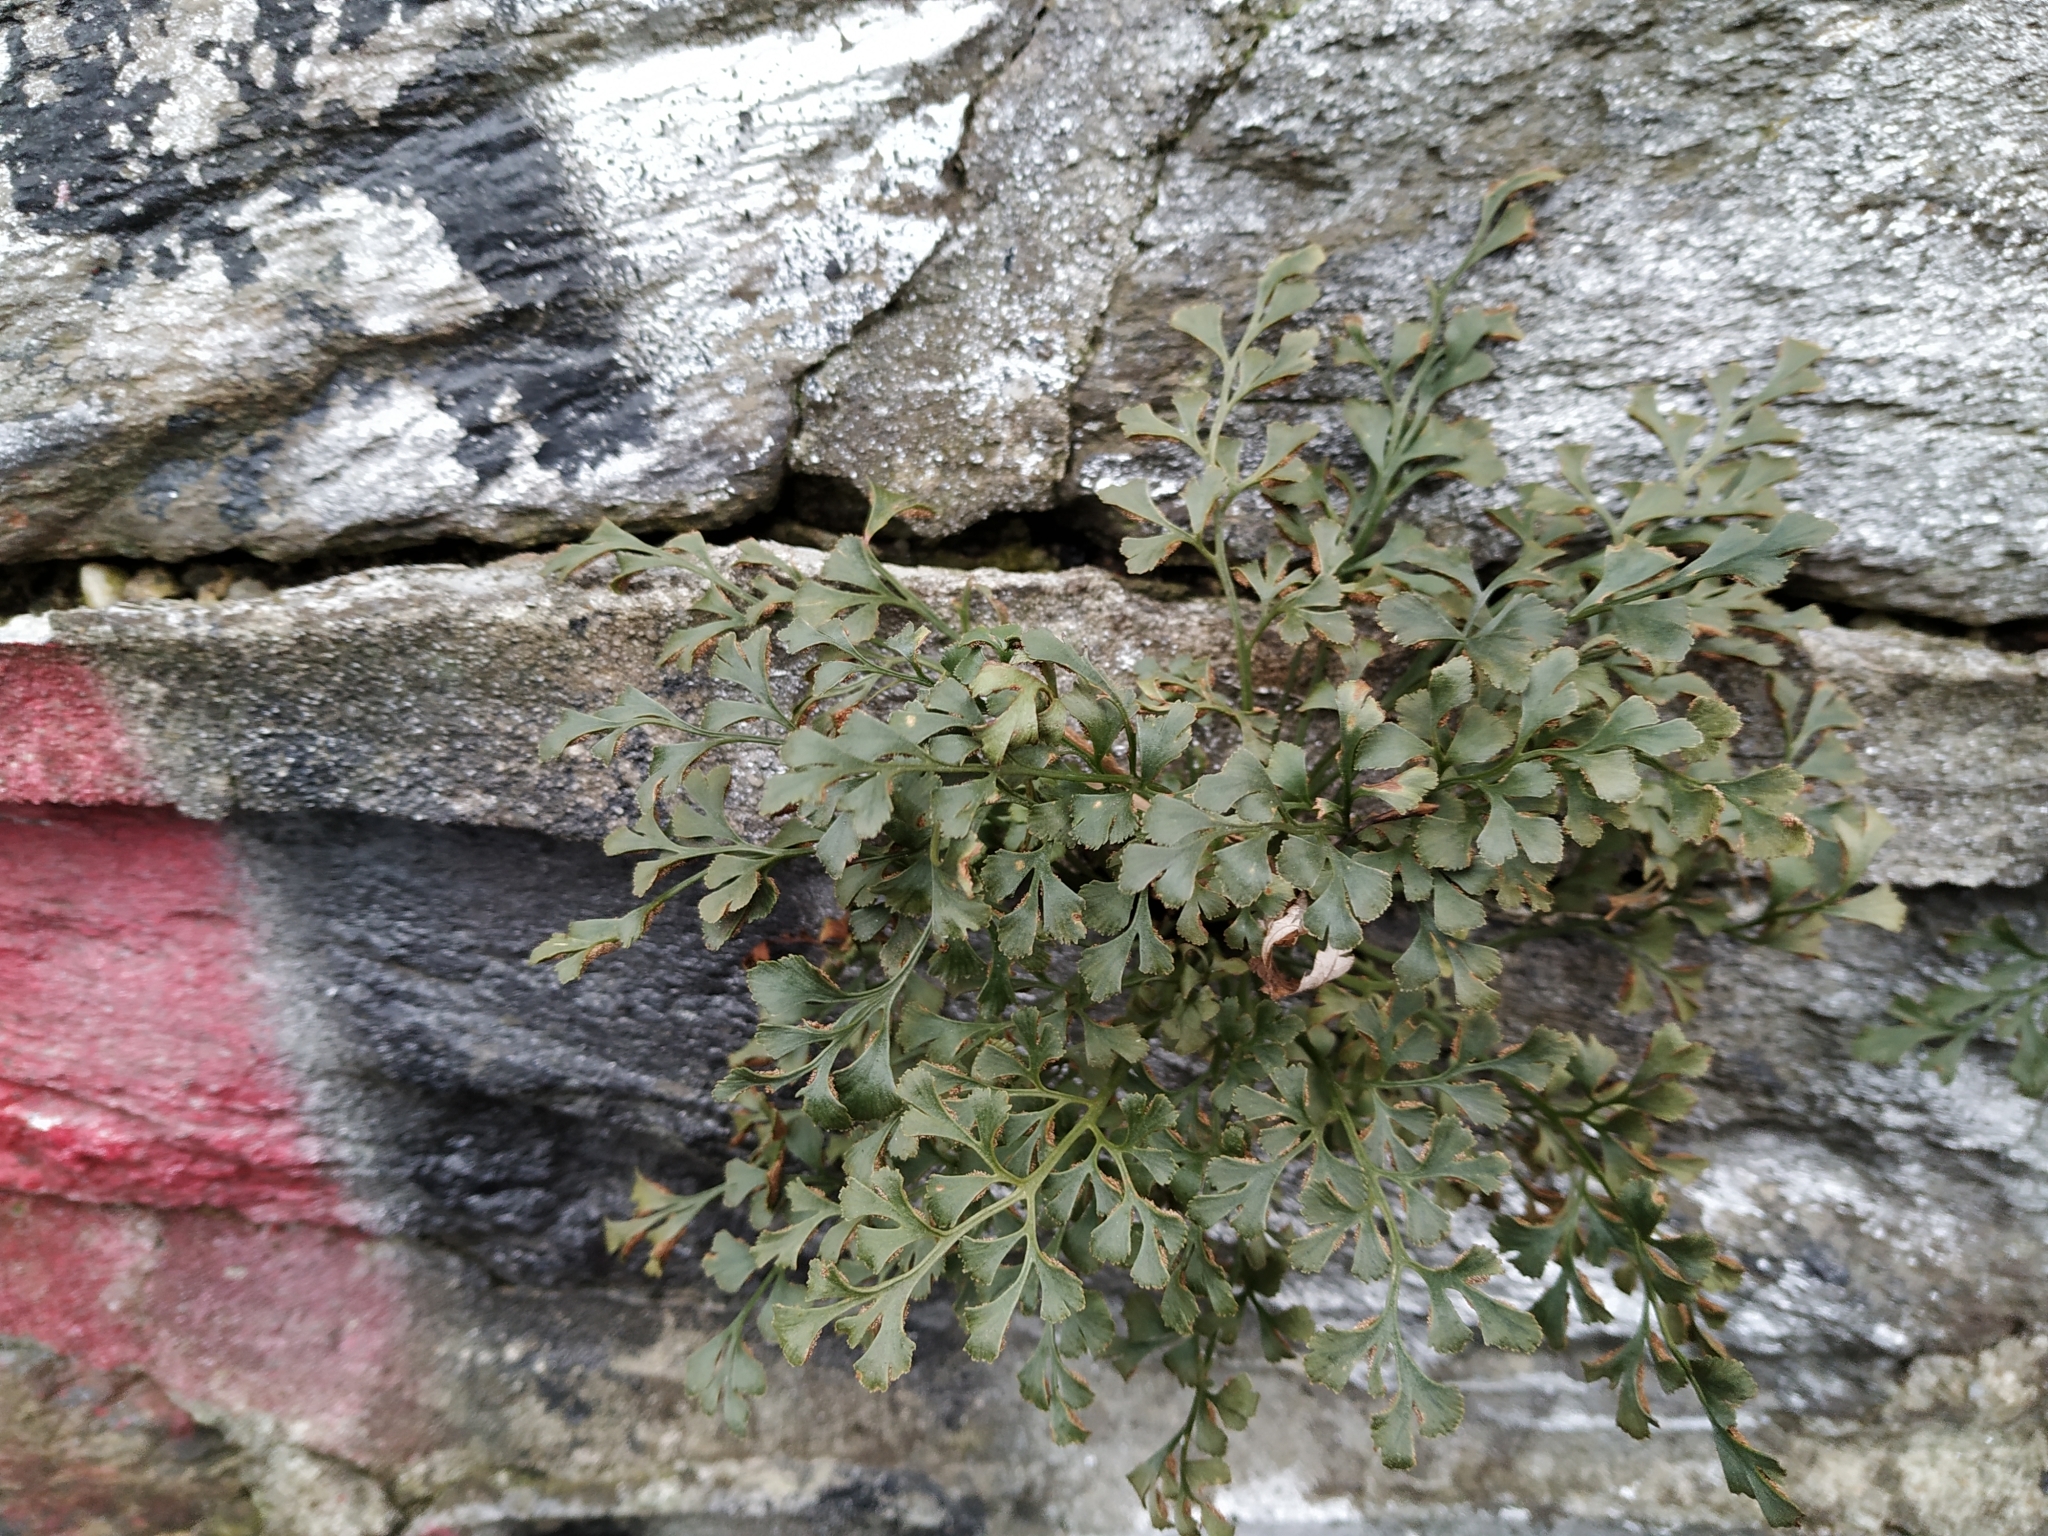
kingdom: Plantae
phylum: Tracheophyta
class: Polypodiopsida
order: Polypodiales
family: Aspleniaceae
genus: Asplenium
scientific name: Asplenium ruta-muraria
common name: Wall-rue
